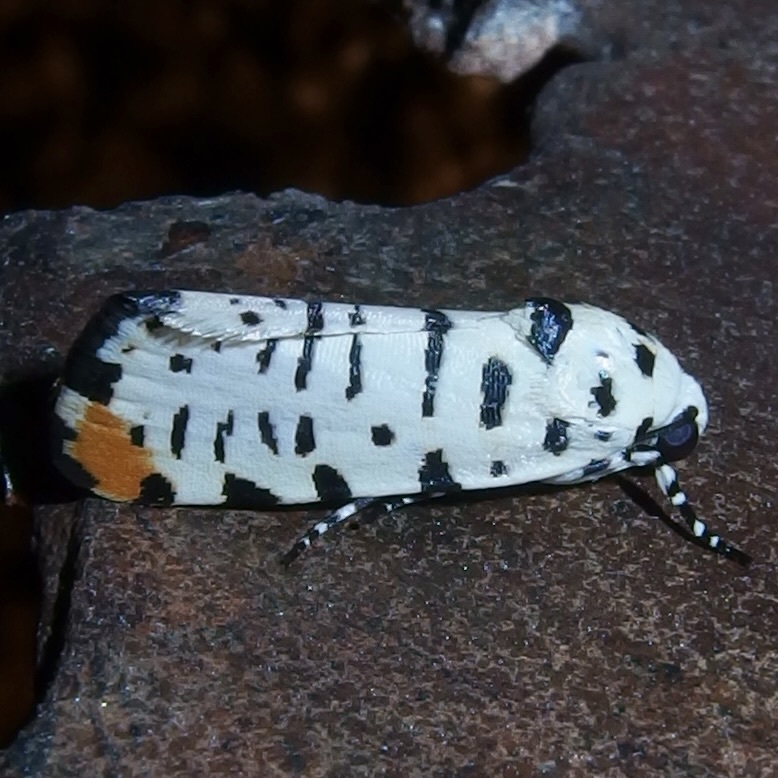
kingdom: Animalia
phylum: Arthropoda
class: Insecta
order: Lepidoptera
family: Noctuidae
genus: Acontia
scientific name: Acontia idella
